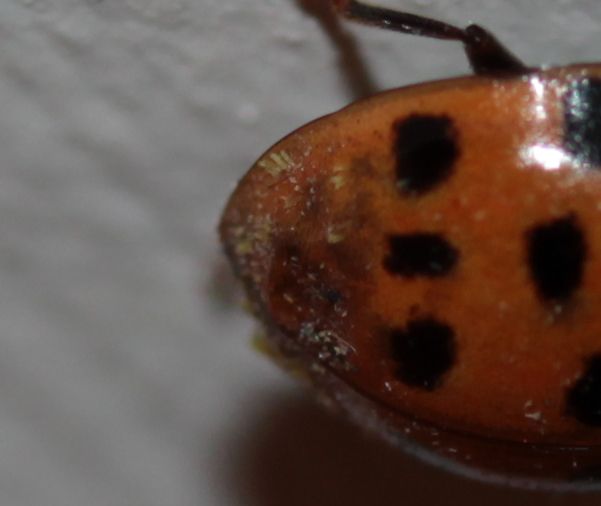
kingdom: Fungi
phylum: Ascomycota
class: Laboulbeniomycetes
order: Laboulbeniales
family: Laboulbeniaceae
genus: Hesperomyces
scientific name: Hesperomyces harmoniae
